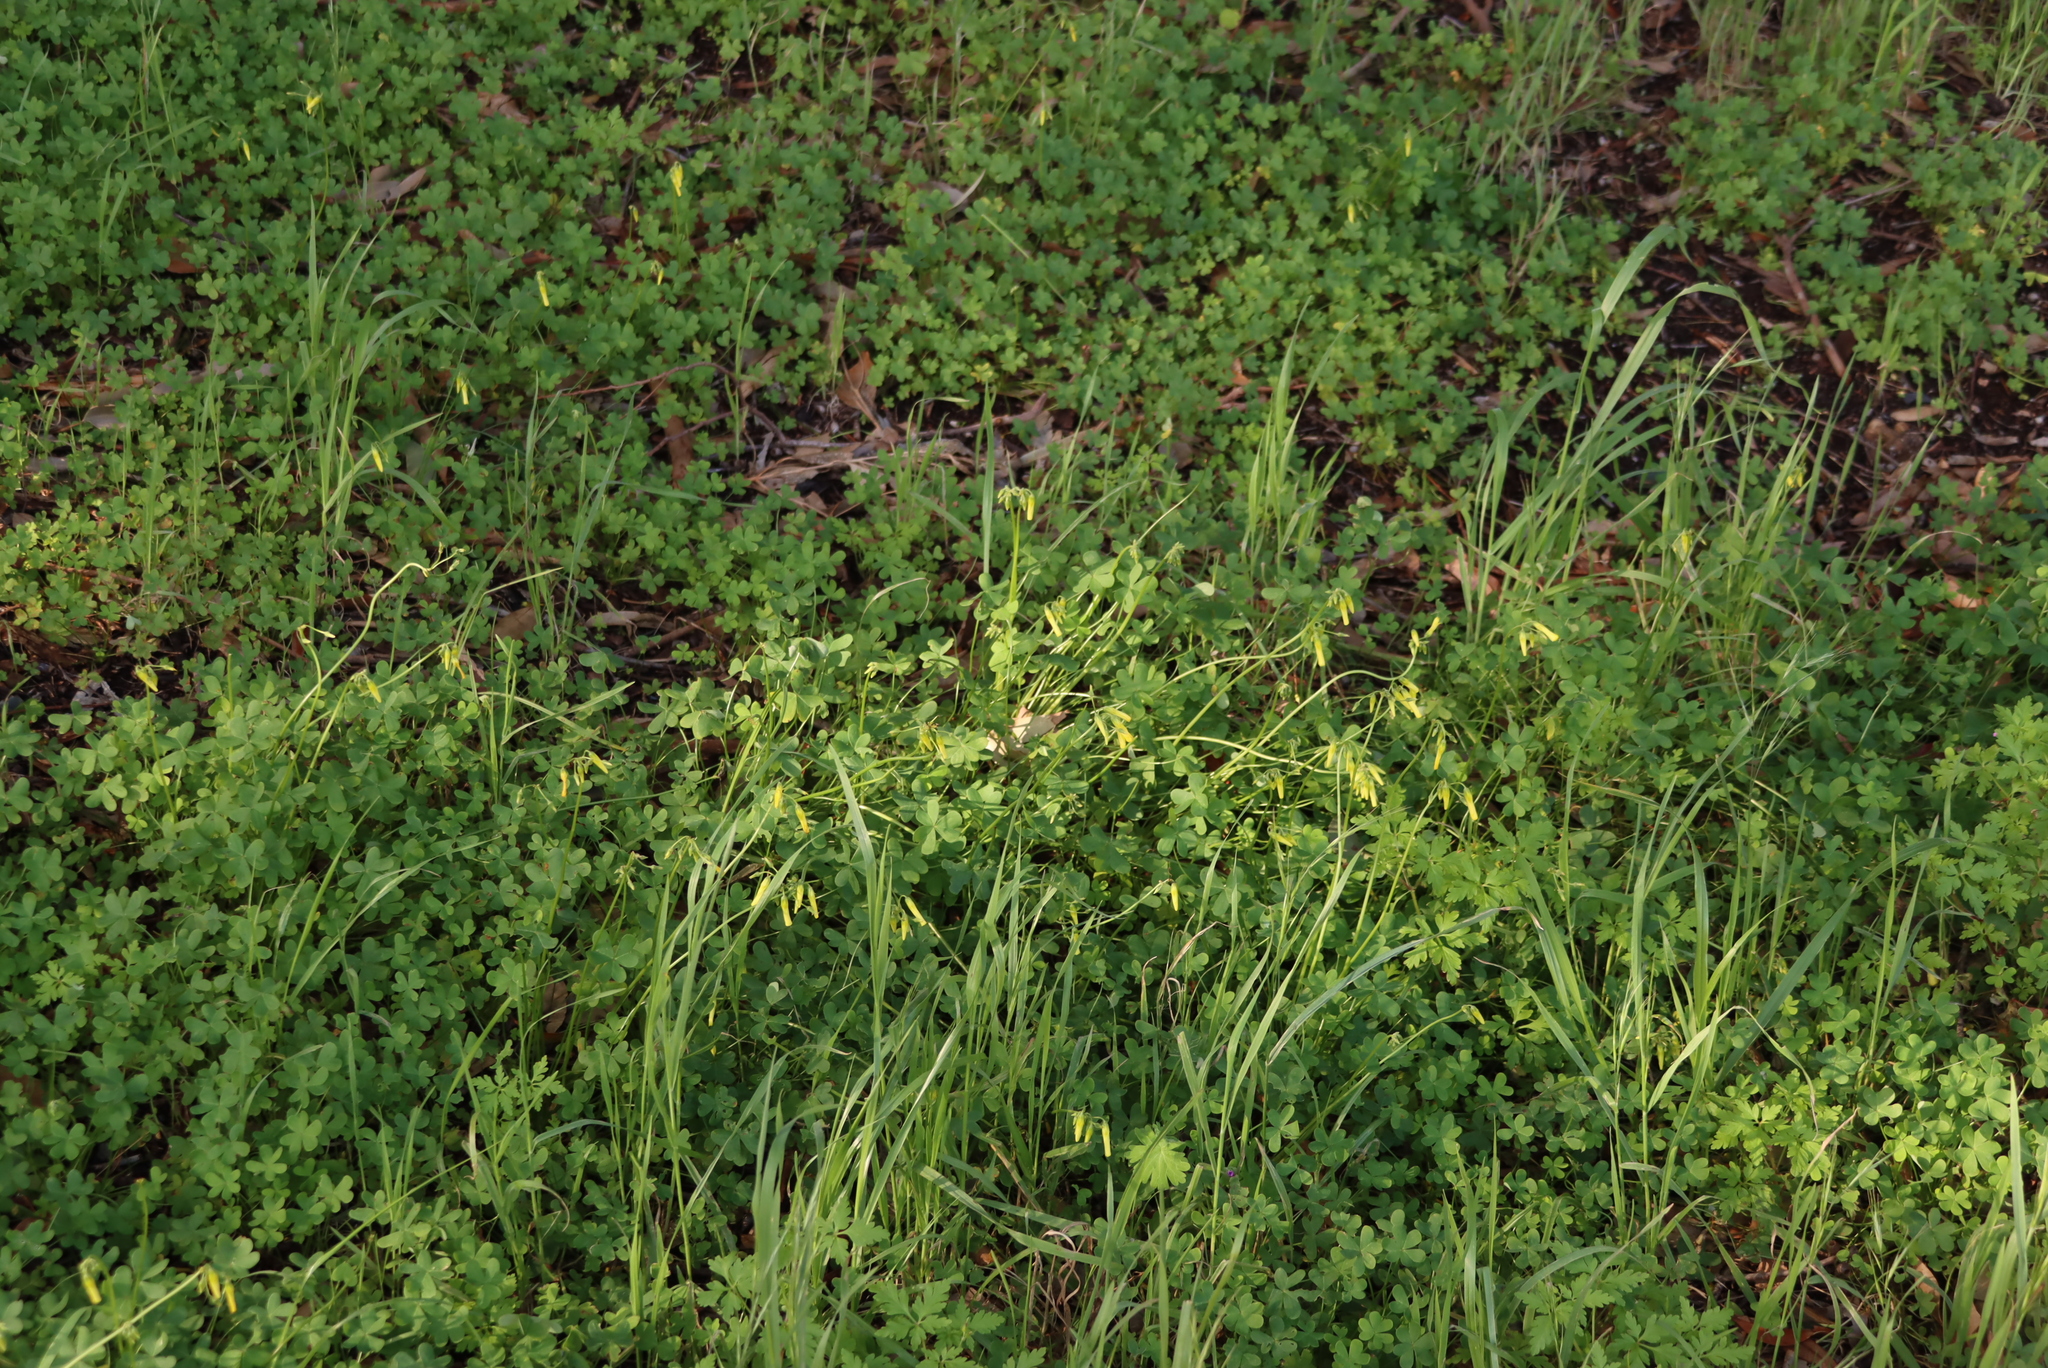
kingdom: Plantae
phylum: Tracheophyta
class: Magnoliopsida
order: Oxalidales
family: Oxalidaceae
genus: Oxalis
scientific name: Oxalis pes-caprae
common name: Bermuda-buttercup
